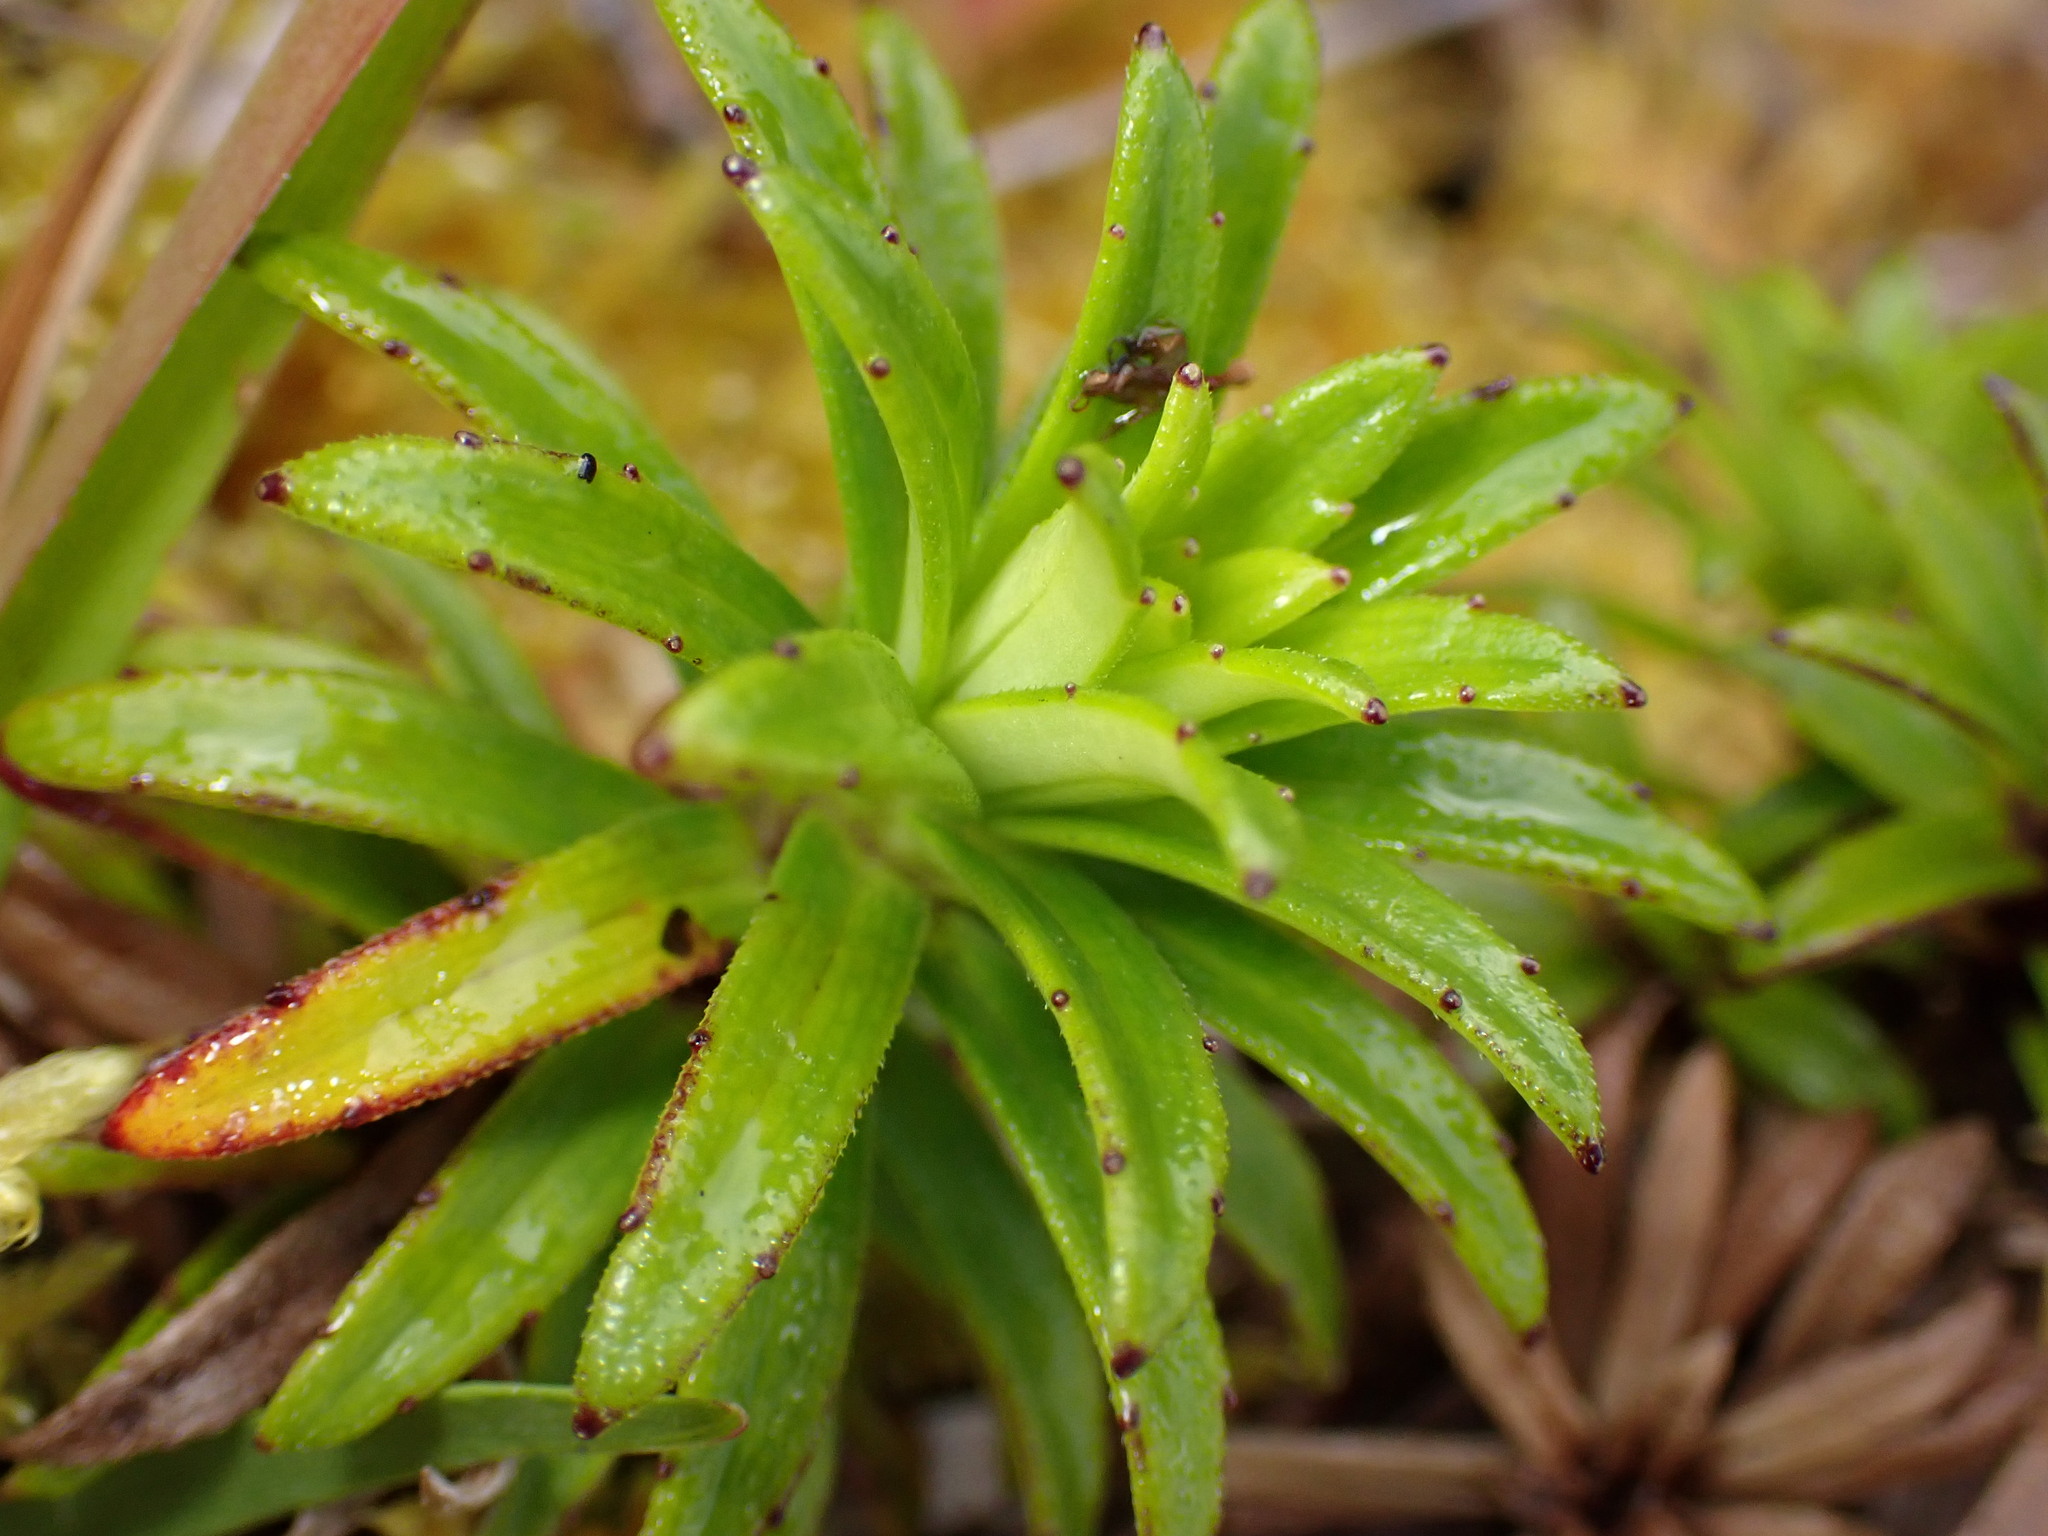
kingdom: Plantae
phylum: Tracheophyta
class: Magnoliopsida
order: Asterales
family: Asteraceae
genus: Dubautia
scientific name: Dubautia scabra
